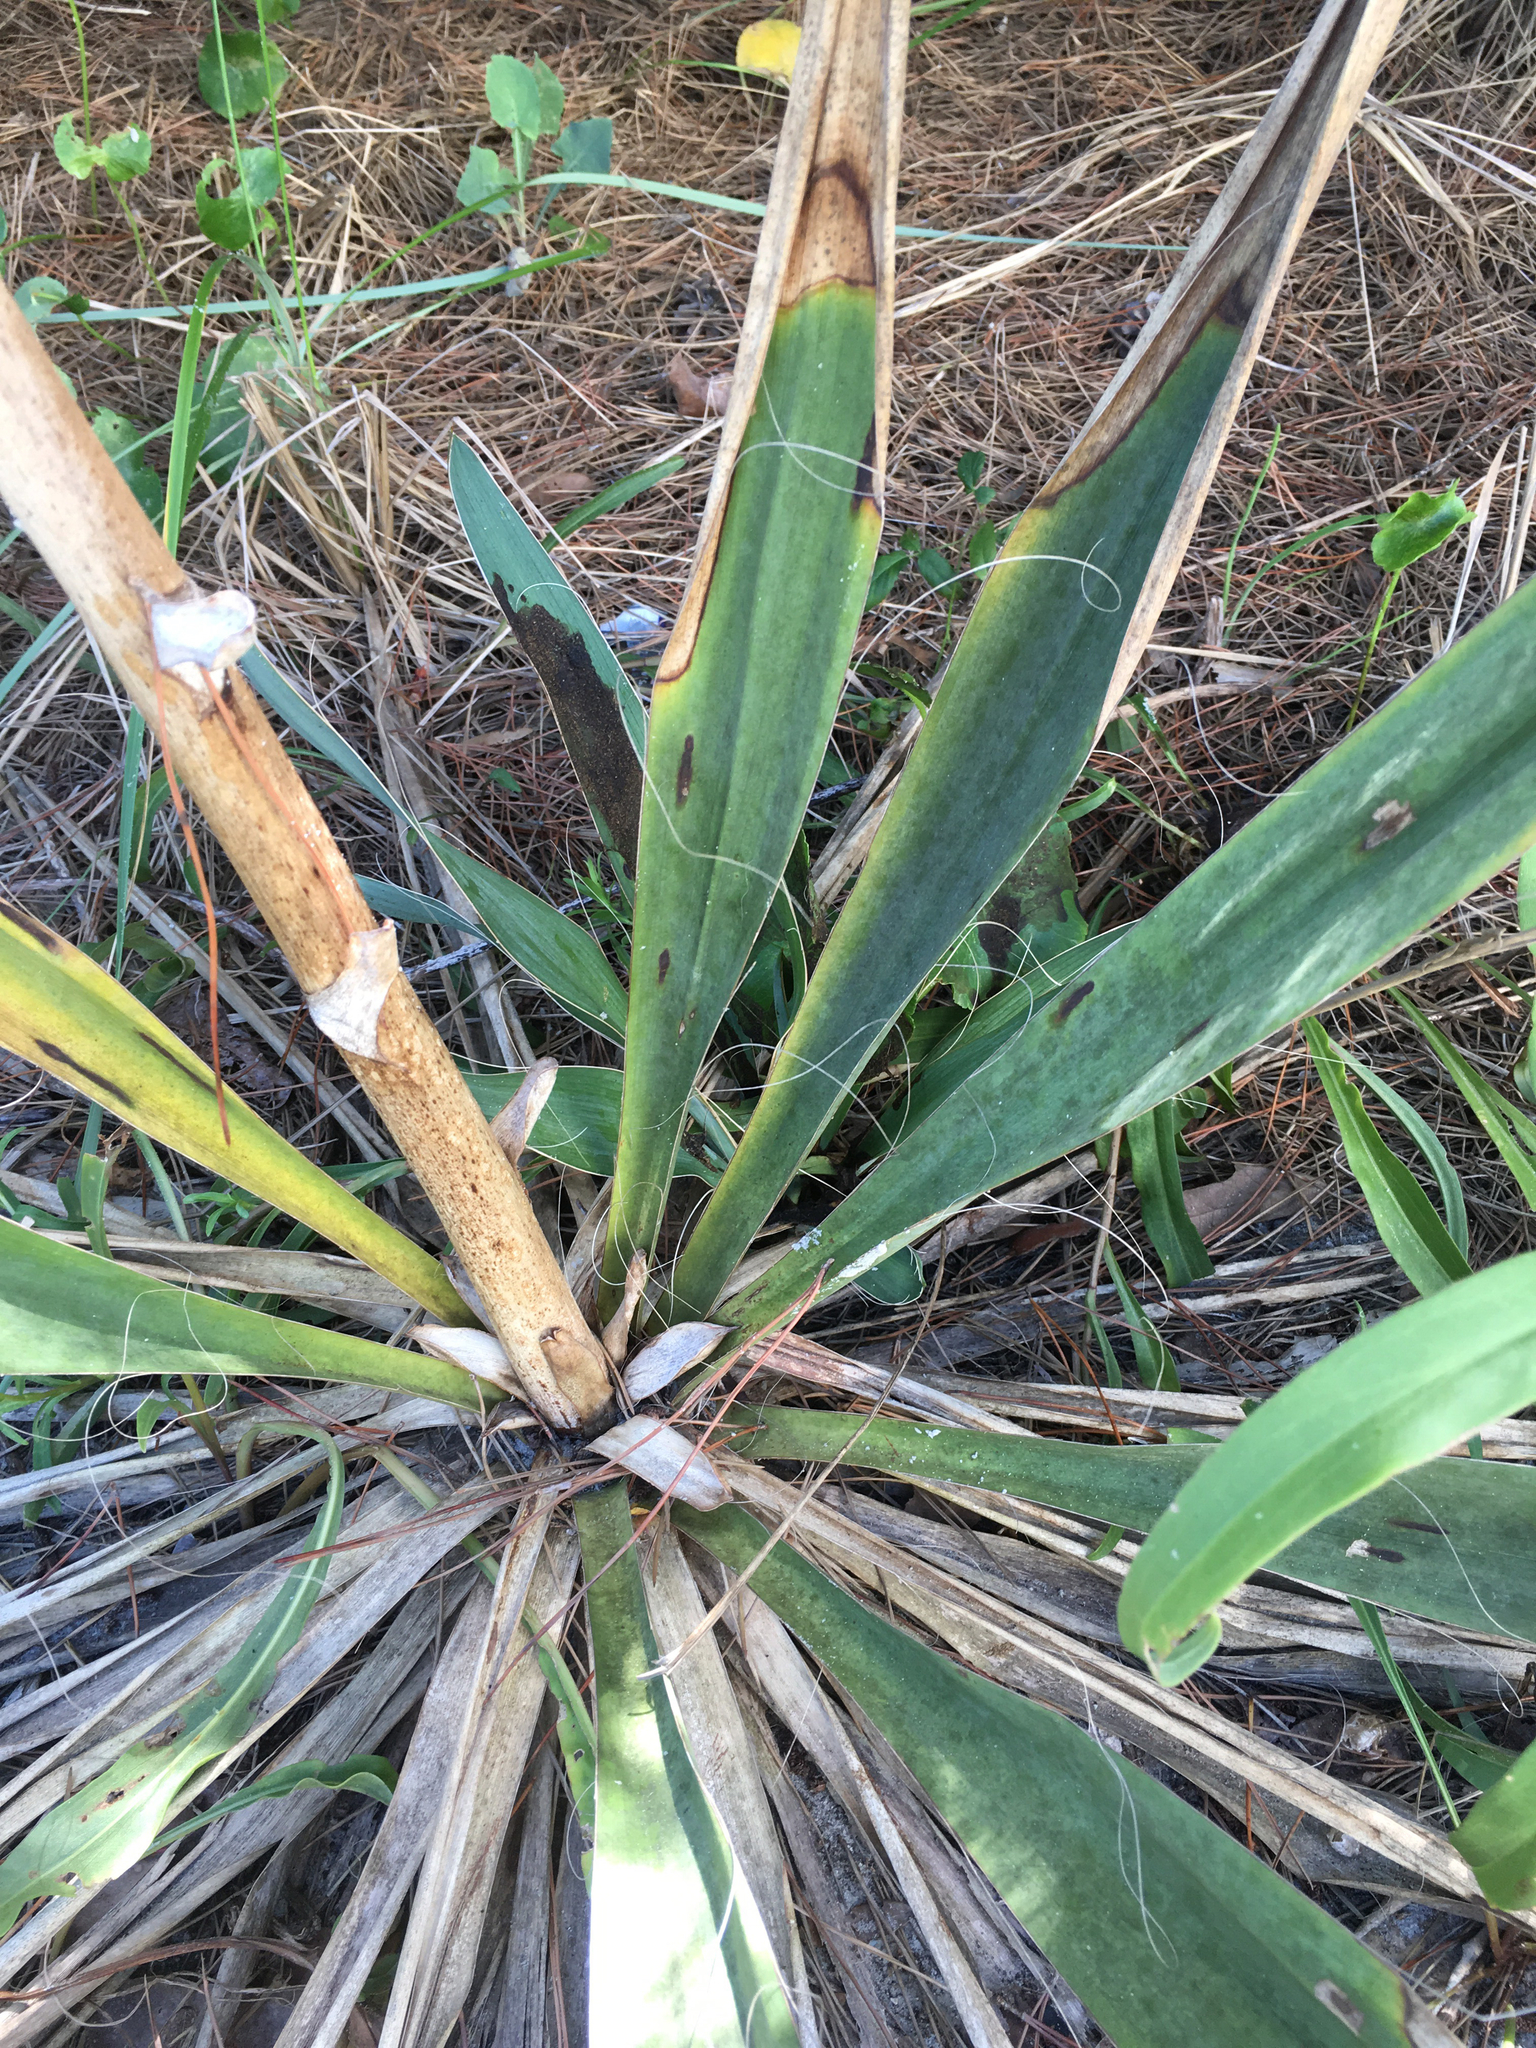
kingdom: Plantae
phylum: Tracheophyta
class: Liliopsida
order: Asparagales
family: Asparagaceae
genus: Yucca
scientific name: Yucca filamentosa
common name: Adam's-needle
